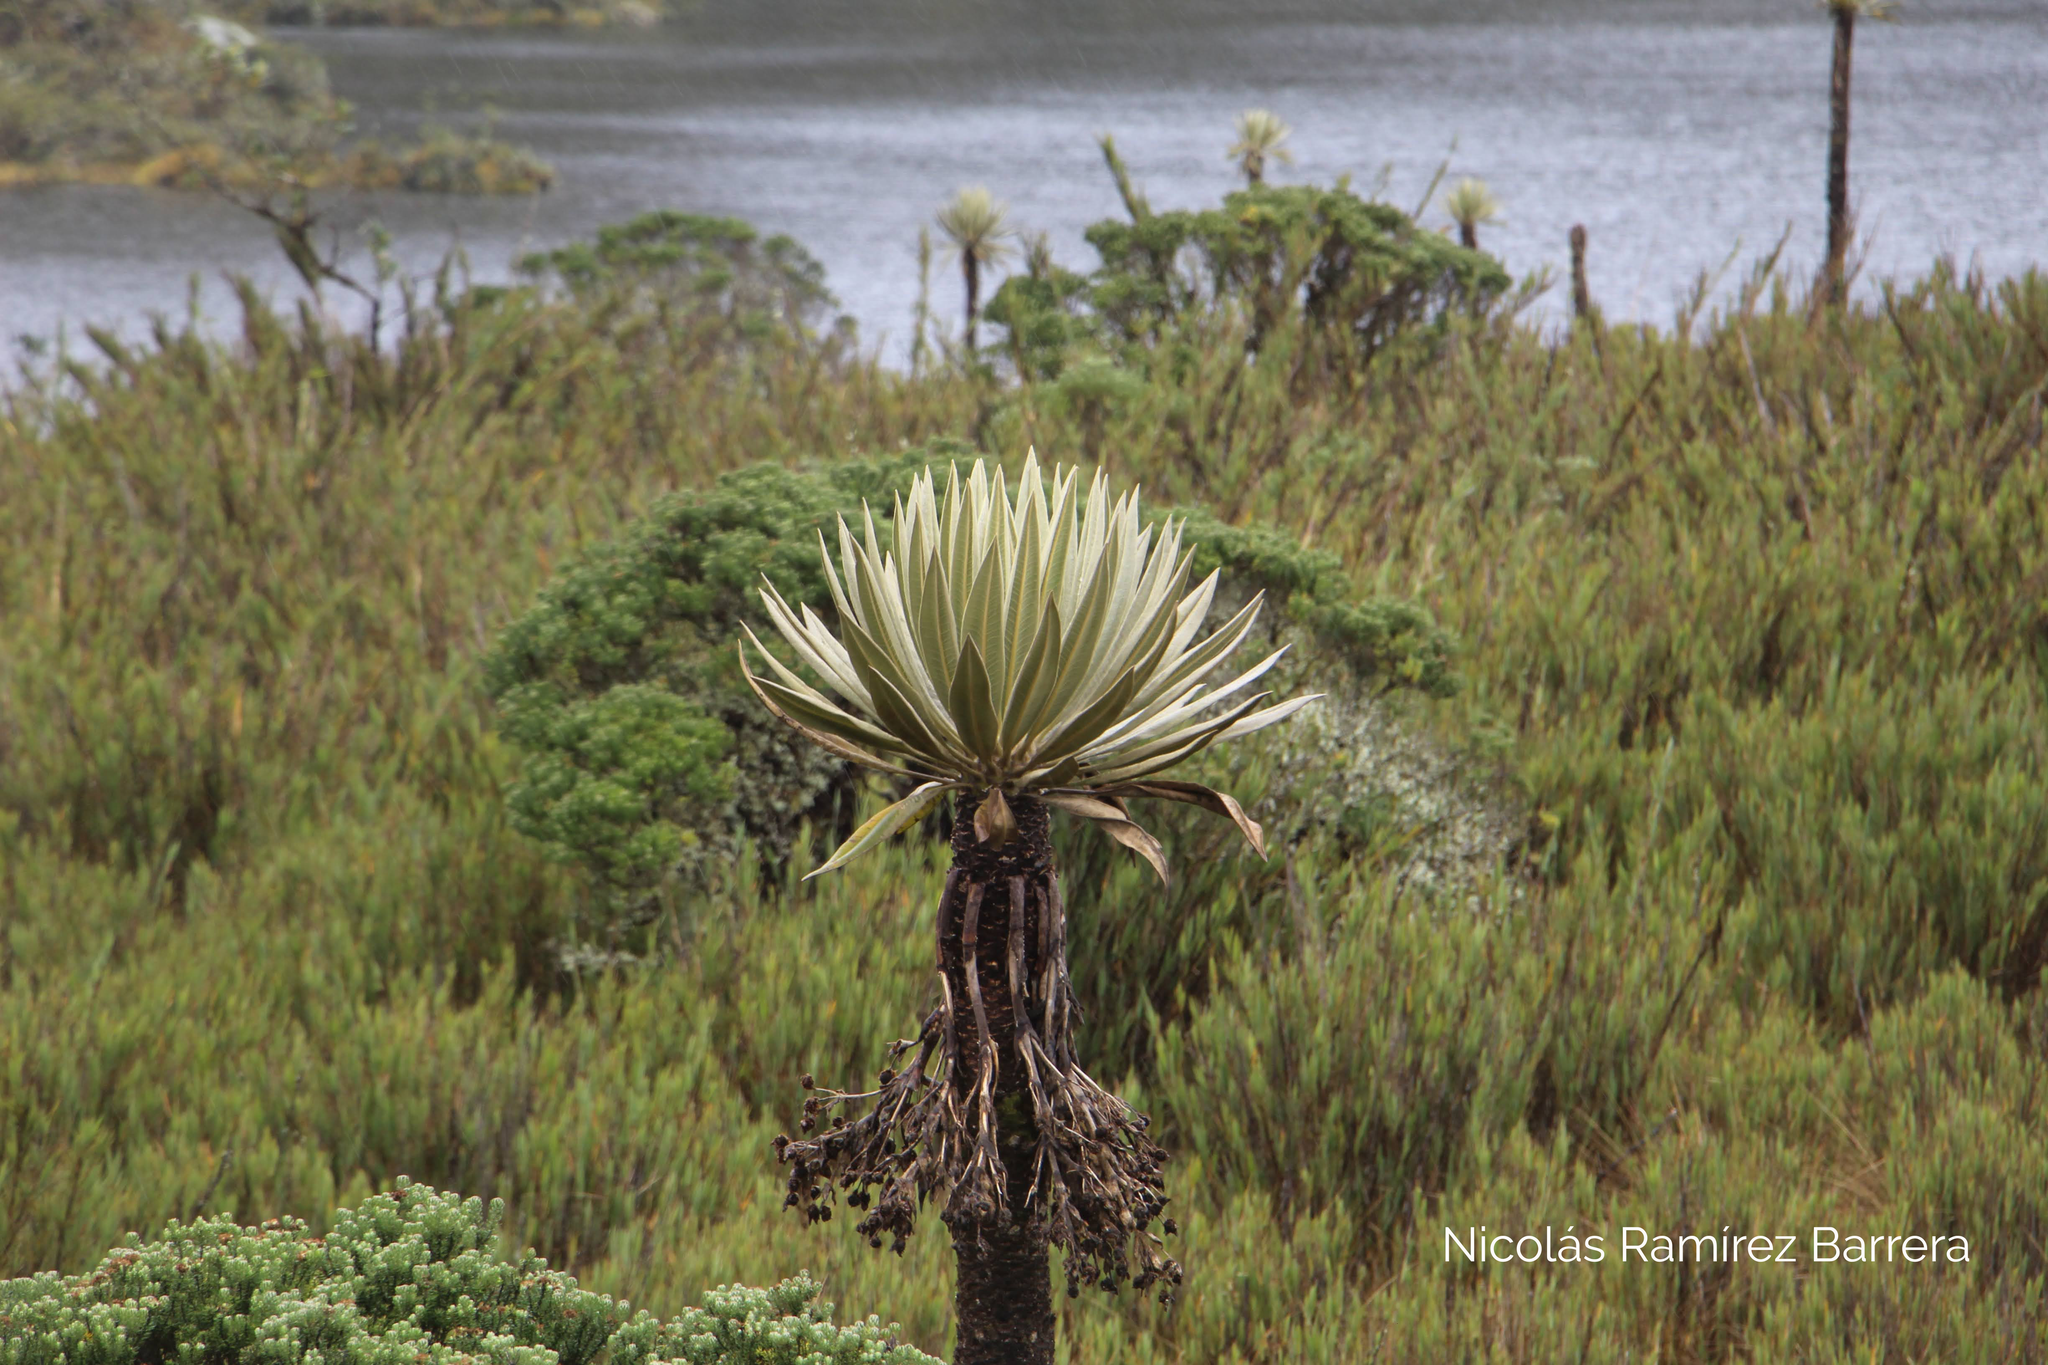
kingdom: Plantae
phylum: Tracheophyta
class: Magnoliopsida
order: Asterales
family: Asteraceae
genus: Espeletia
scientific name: Espeletia grandiflora
